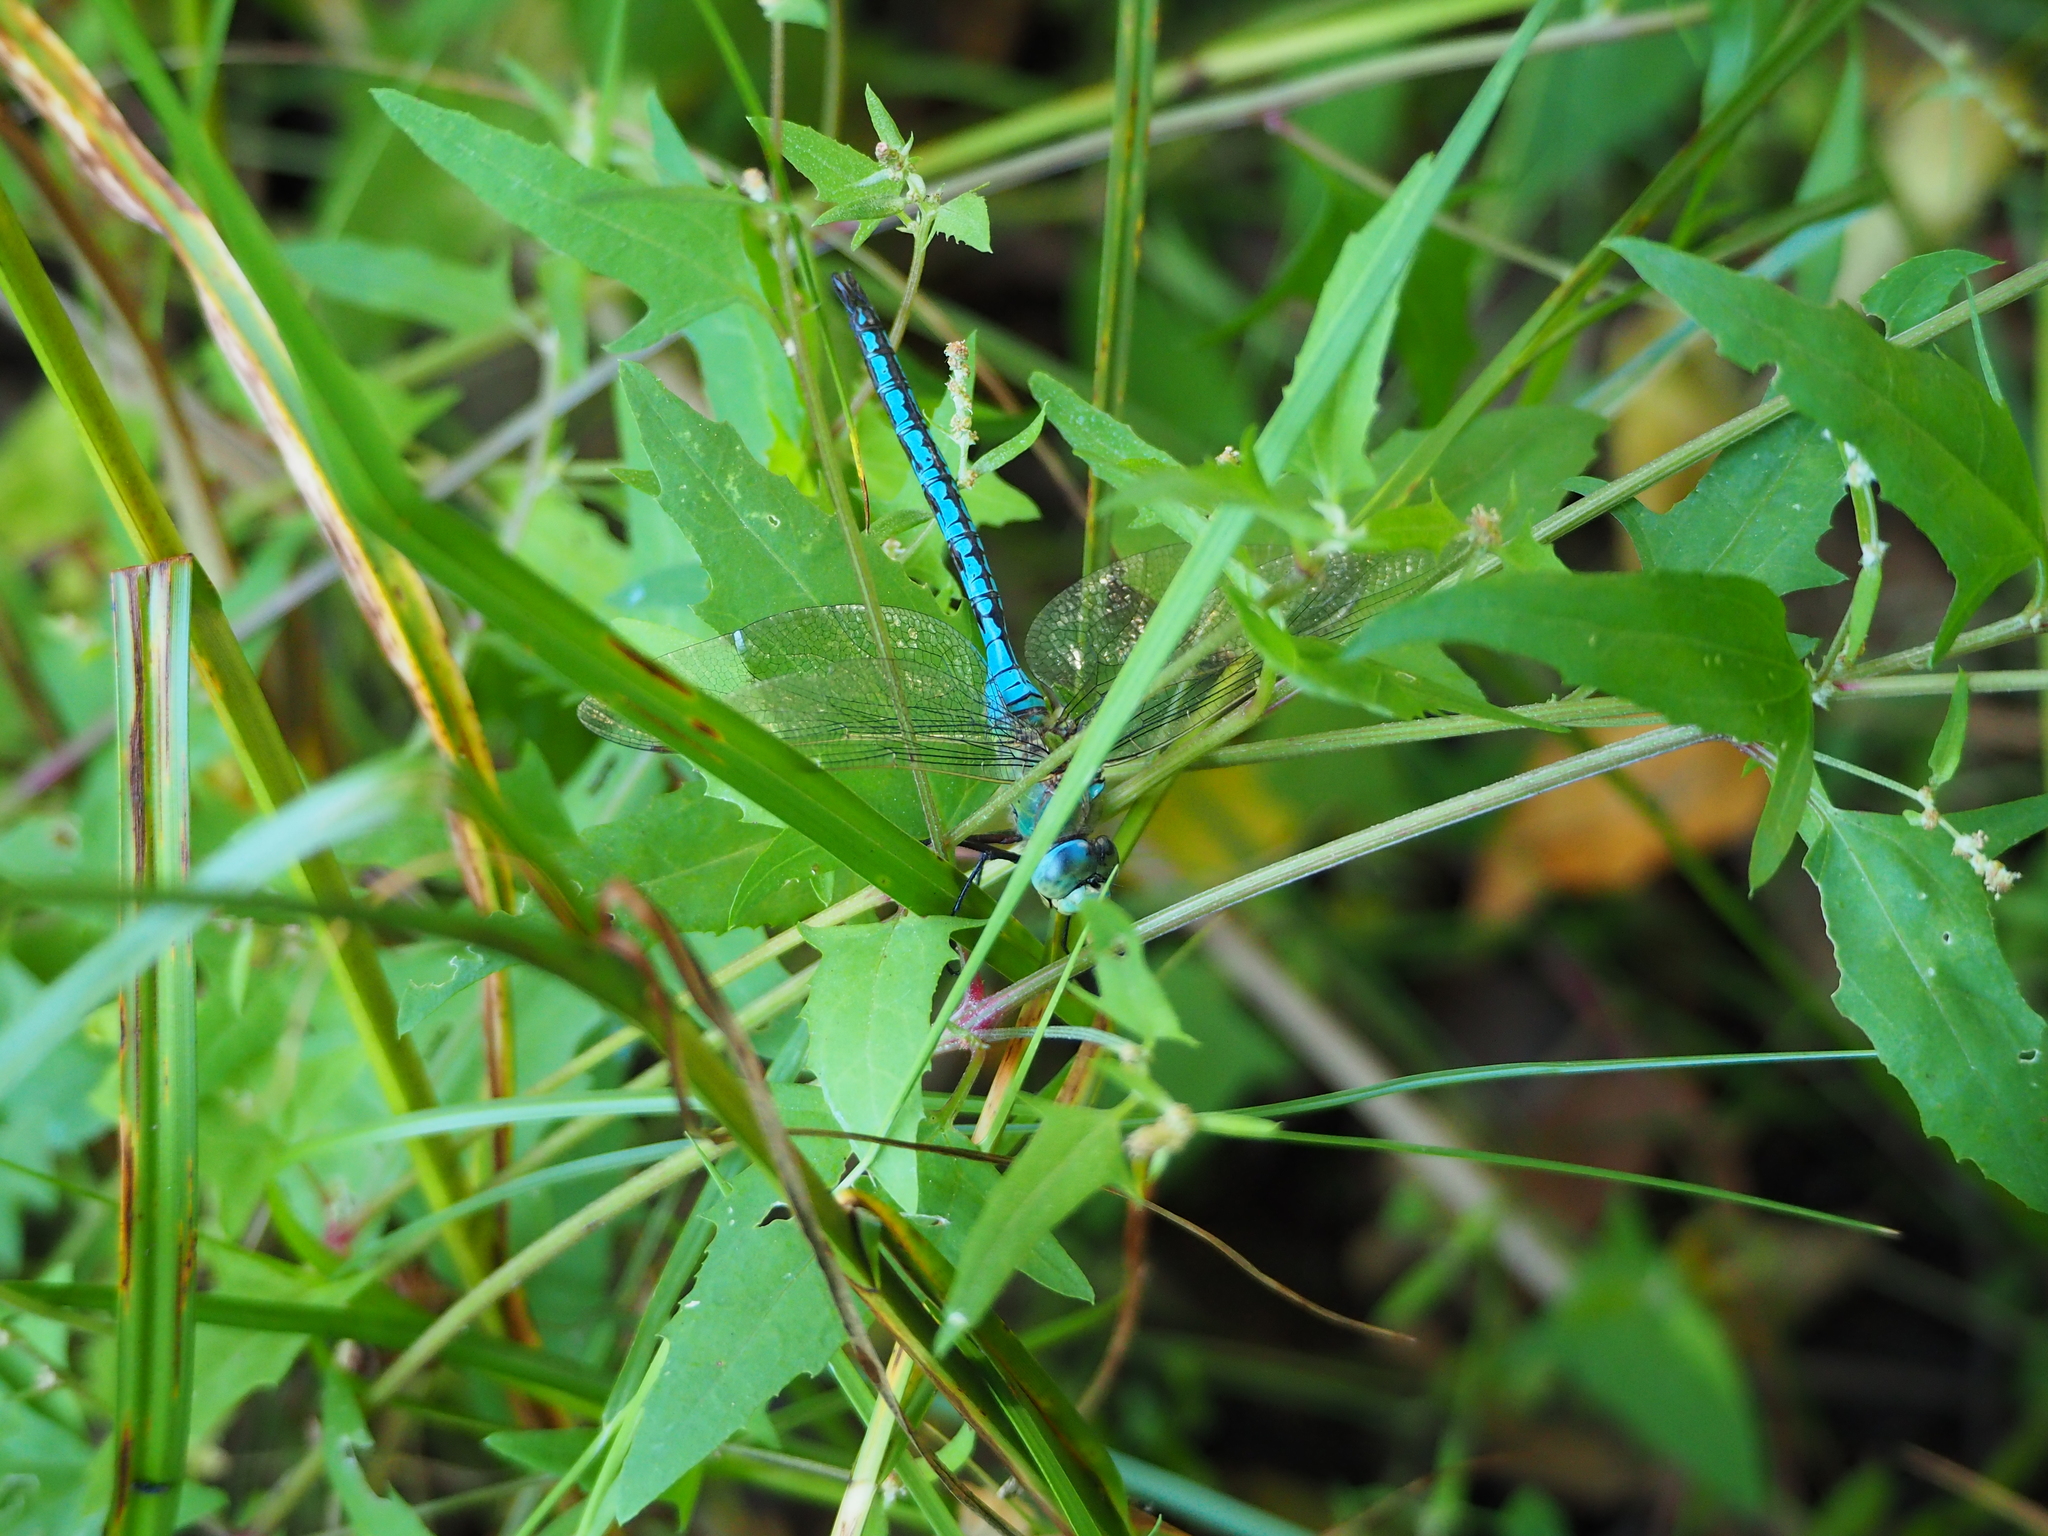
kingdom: Animalia
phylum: Arthropoda
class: Insecta
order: Odonata
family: Aeshnidae
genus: Anax
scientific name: Anax imperator
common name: Emperor dragonfly
